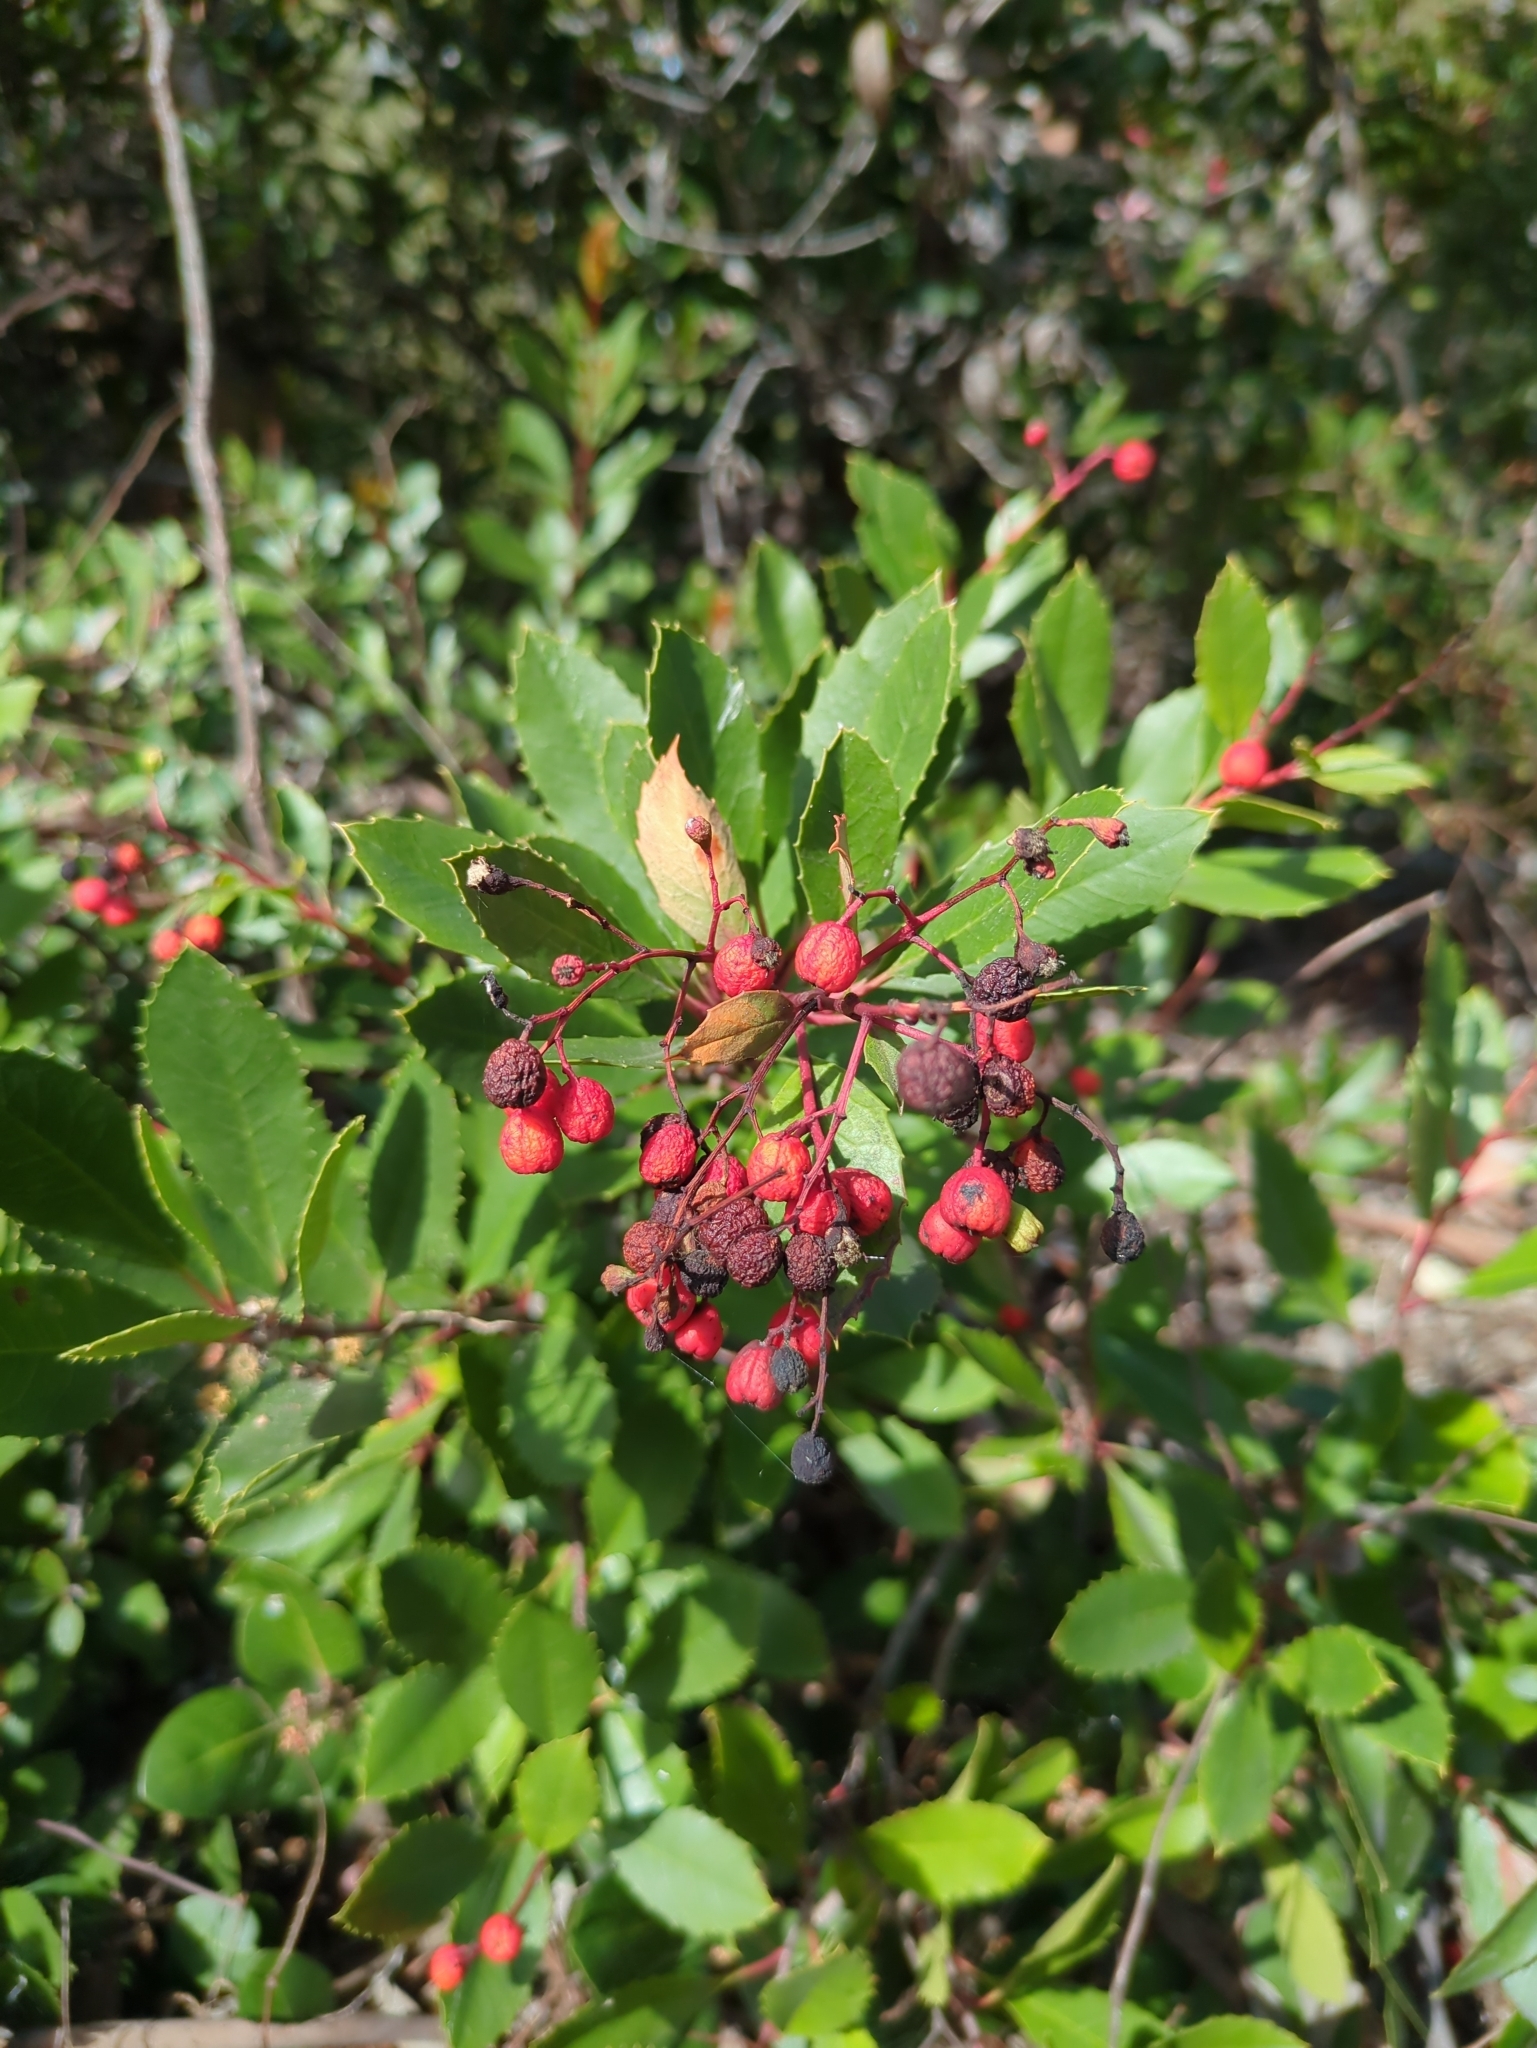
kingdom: Plantae
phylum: Tracheophyta
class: Magnoliopsida
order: Rosales
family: Rosaceae
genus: Heteromeles
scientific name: Heteromeles arbutifolia
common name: California-holly
